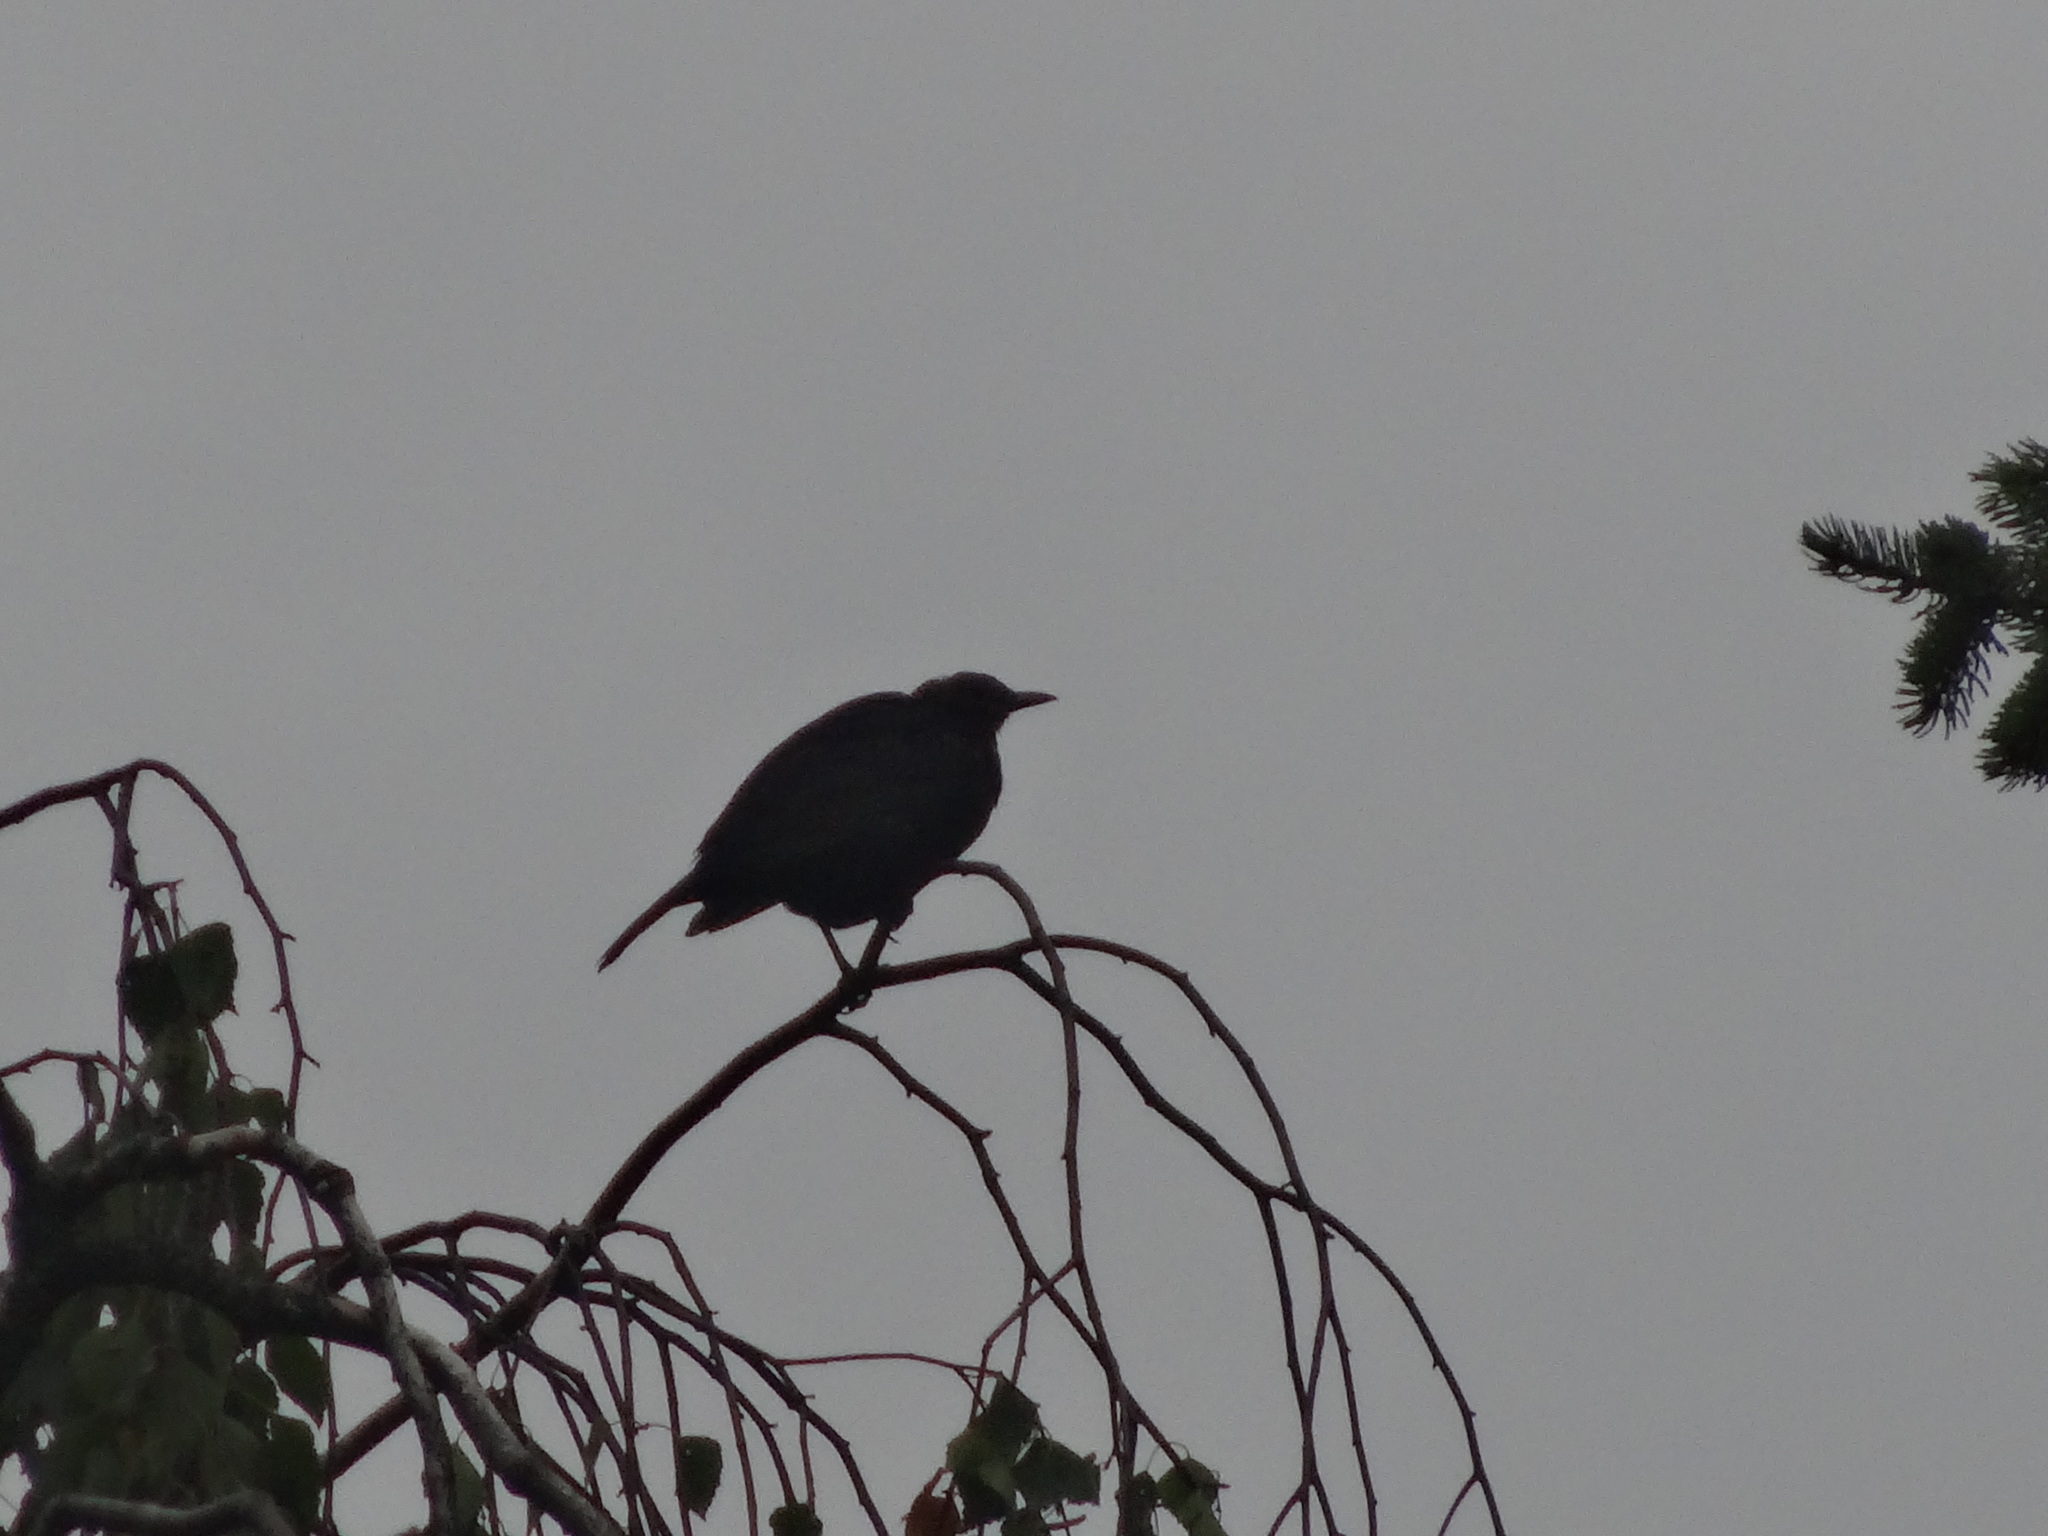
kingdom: Animalia
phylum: Chordata
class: Aves
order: Passeriformes
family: Turdidae
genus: Turdus
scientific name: Turdus merula
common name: Common blackbird
